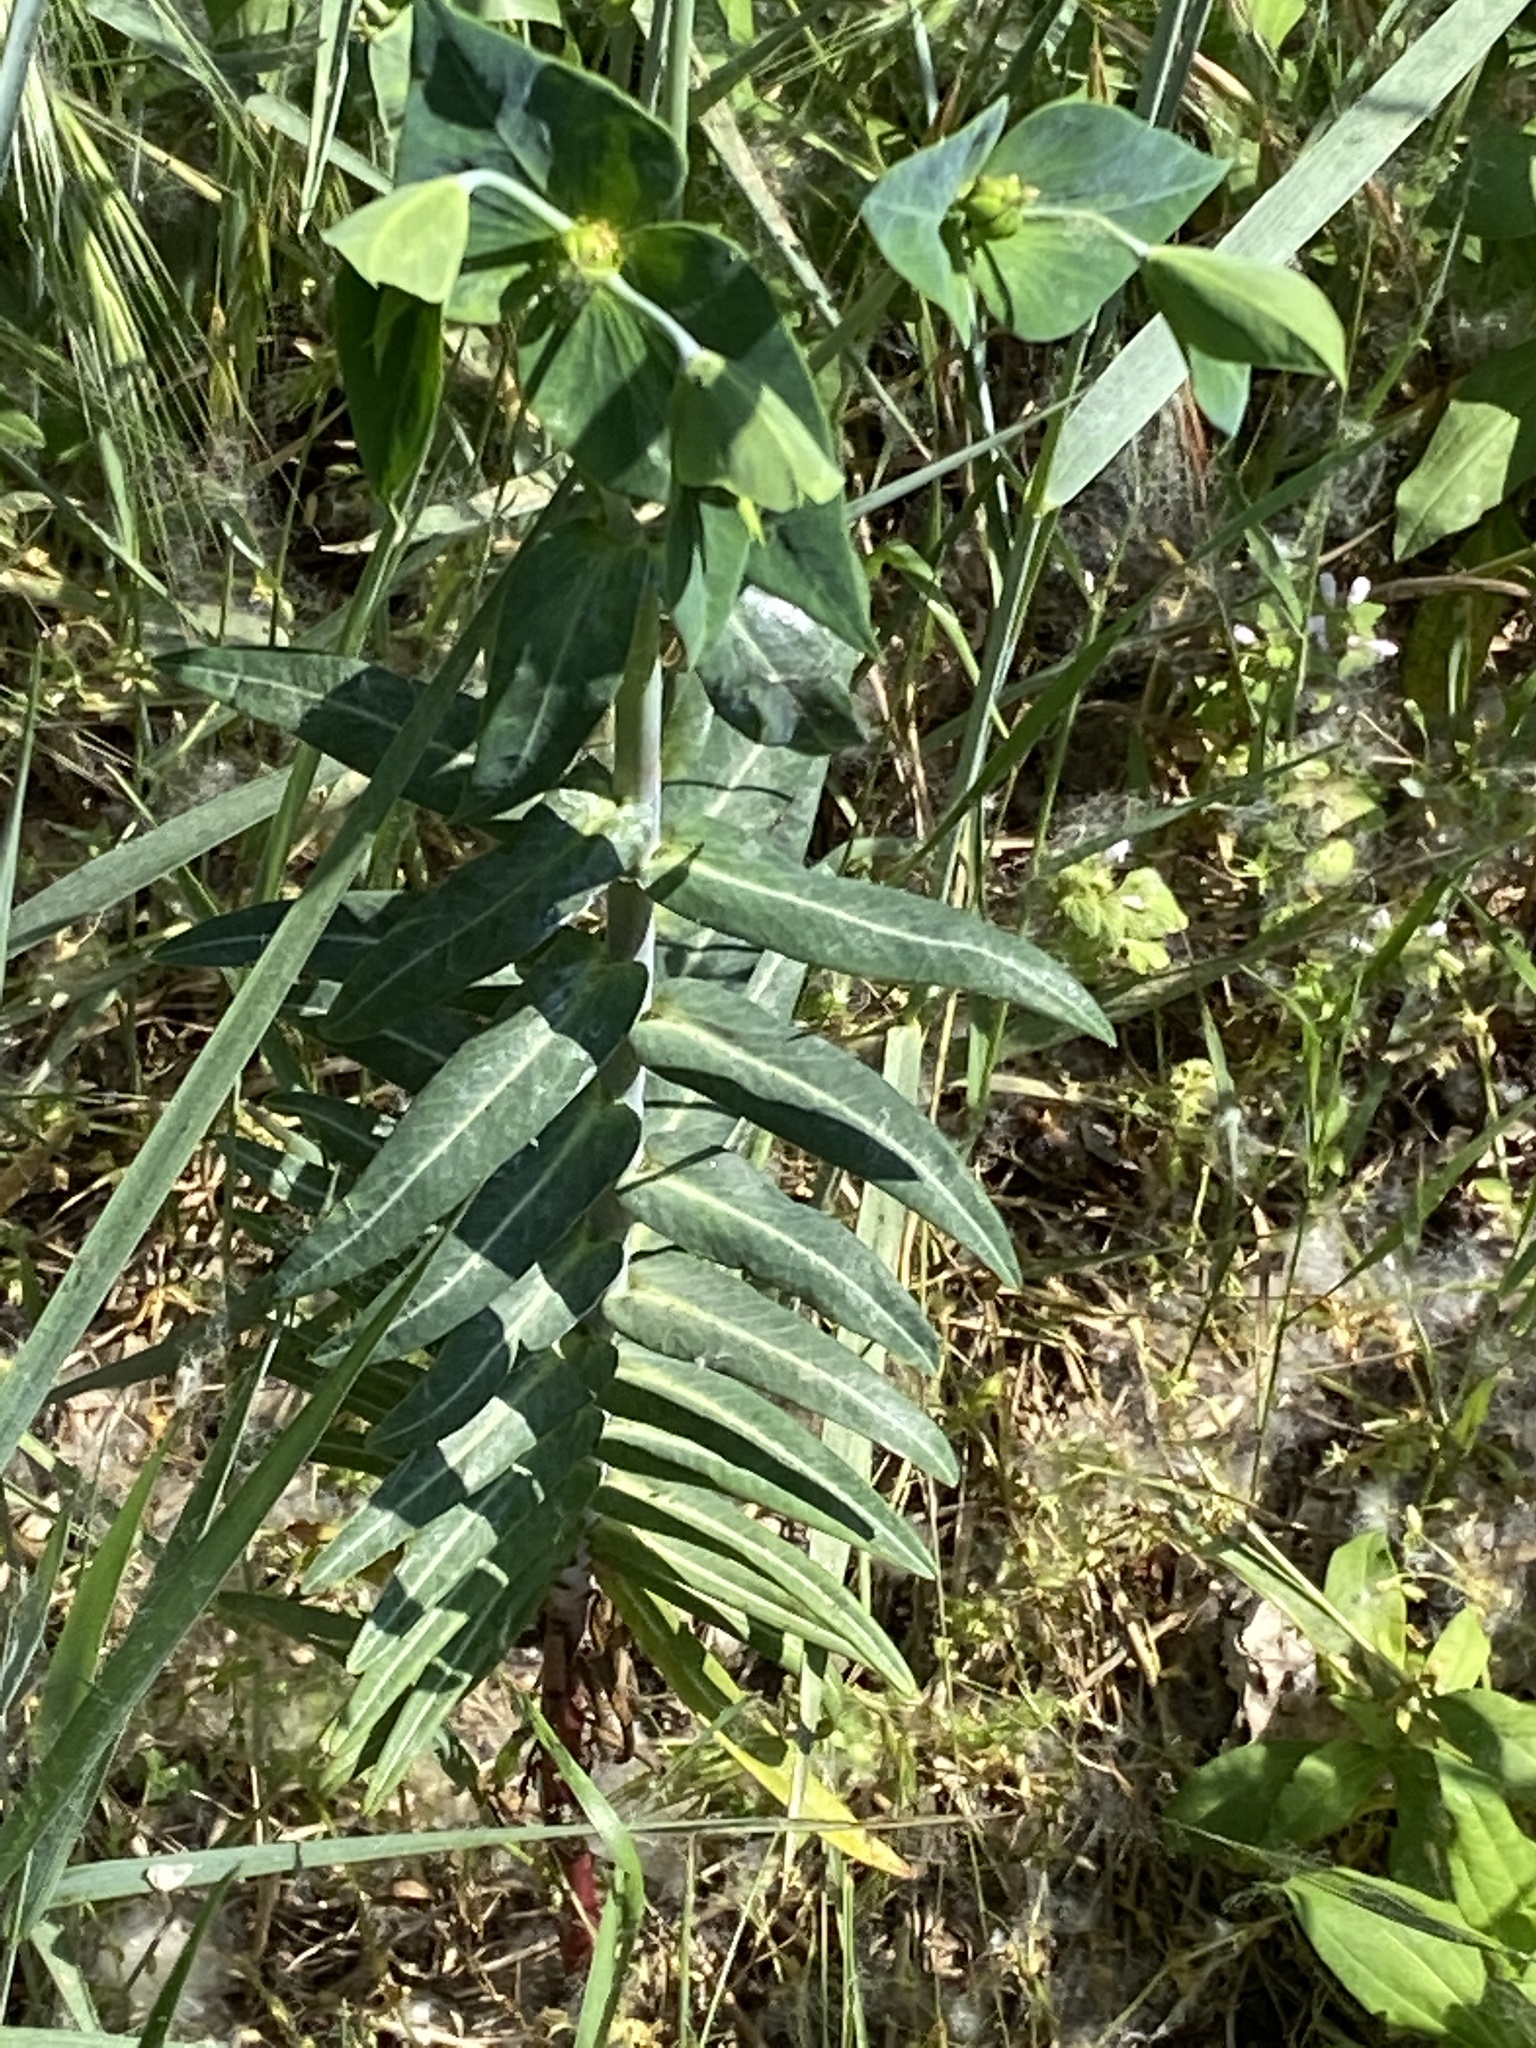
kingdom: Plantae
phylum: Tracheophyta
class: Magnoliopsida
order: Malpighiales
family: Euphorbiaceae
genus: Euphorbia
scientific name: Euphorbia lathyris
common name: Caper spurge
